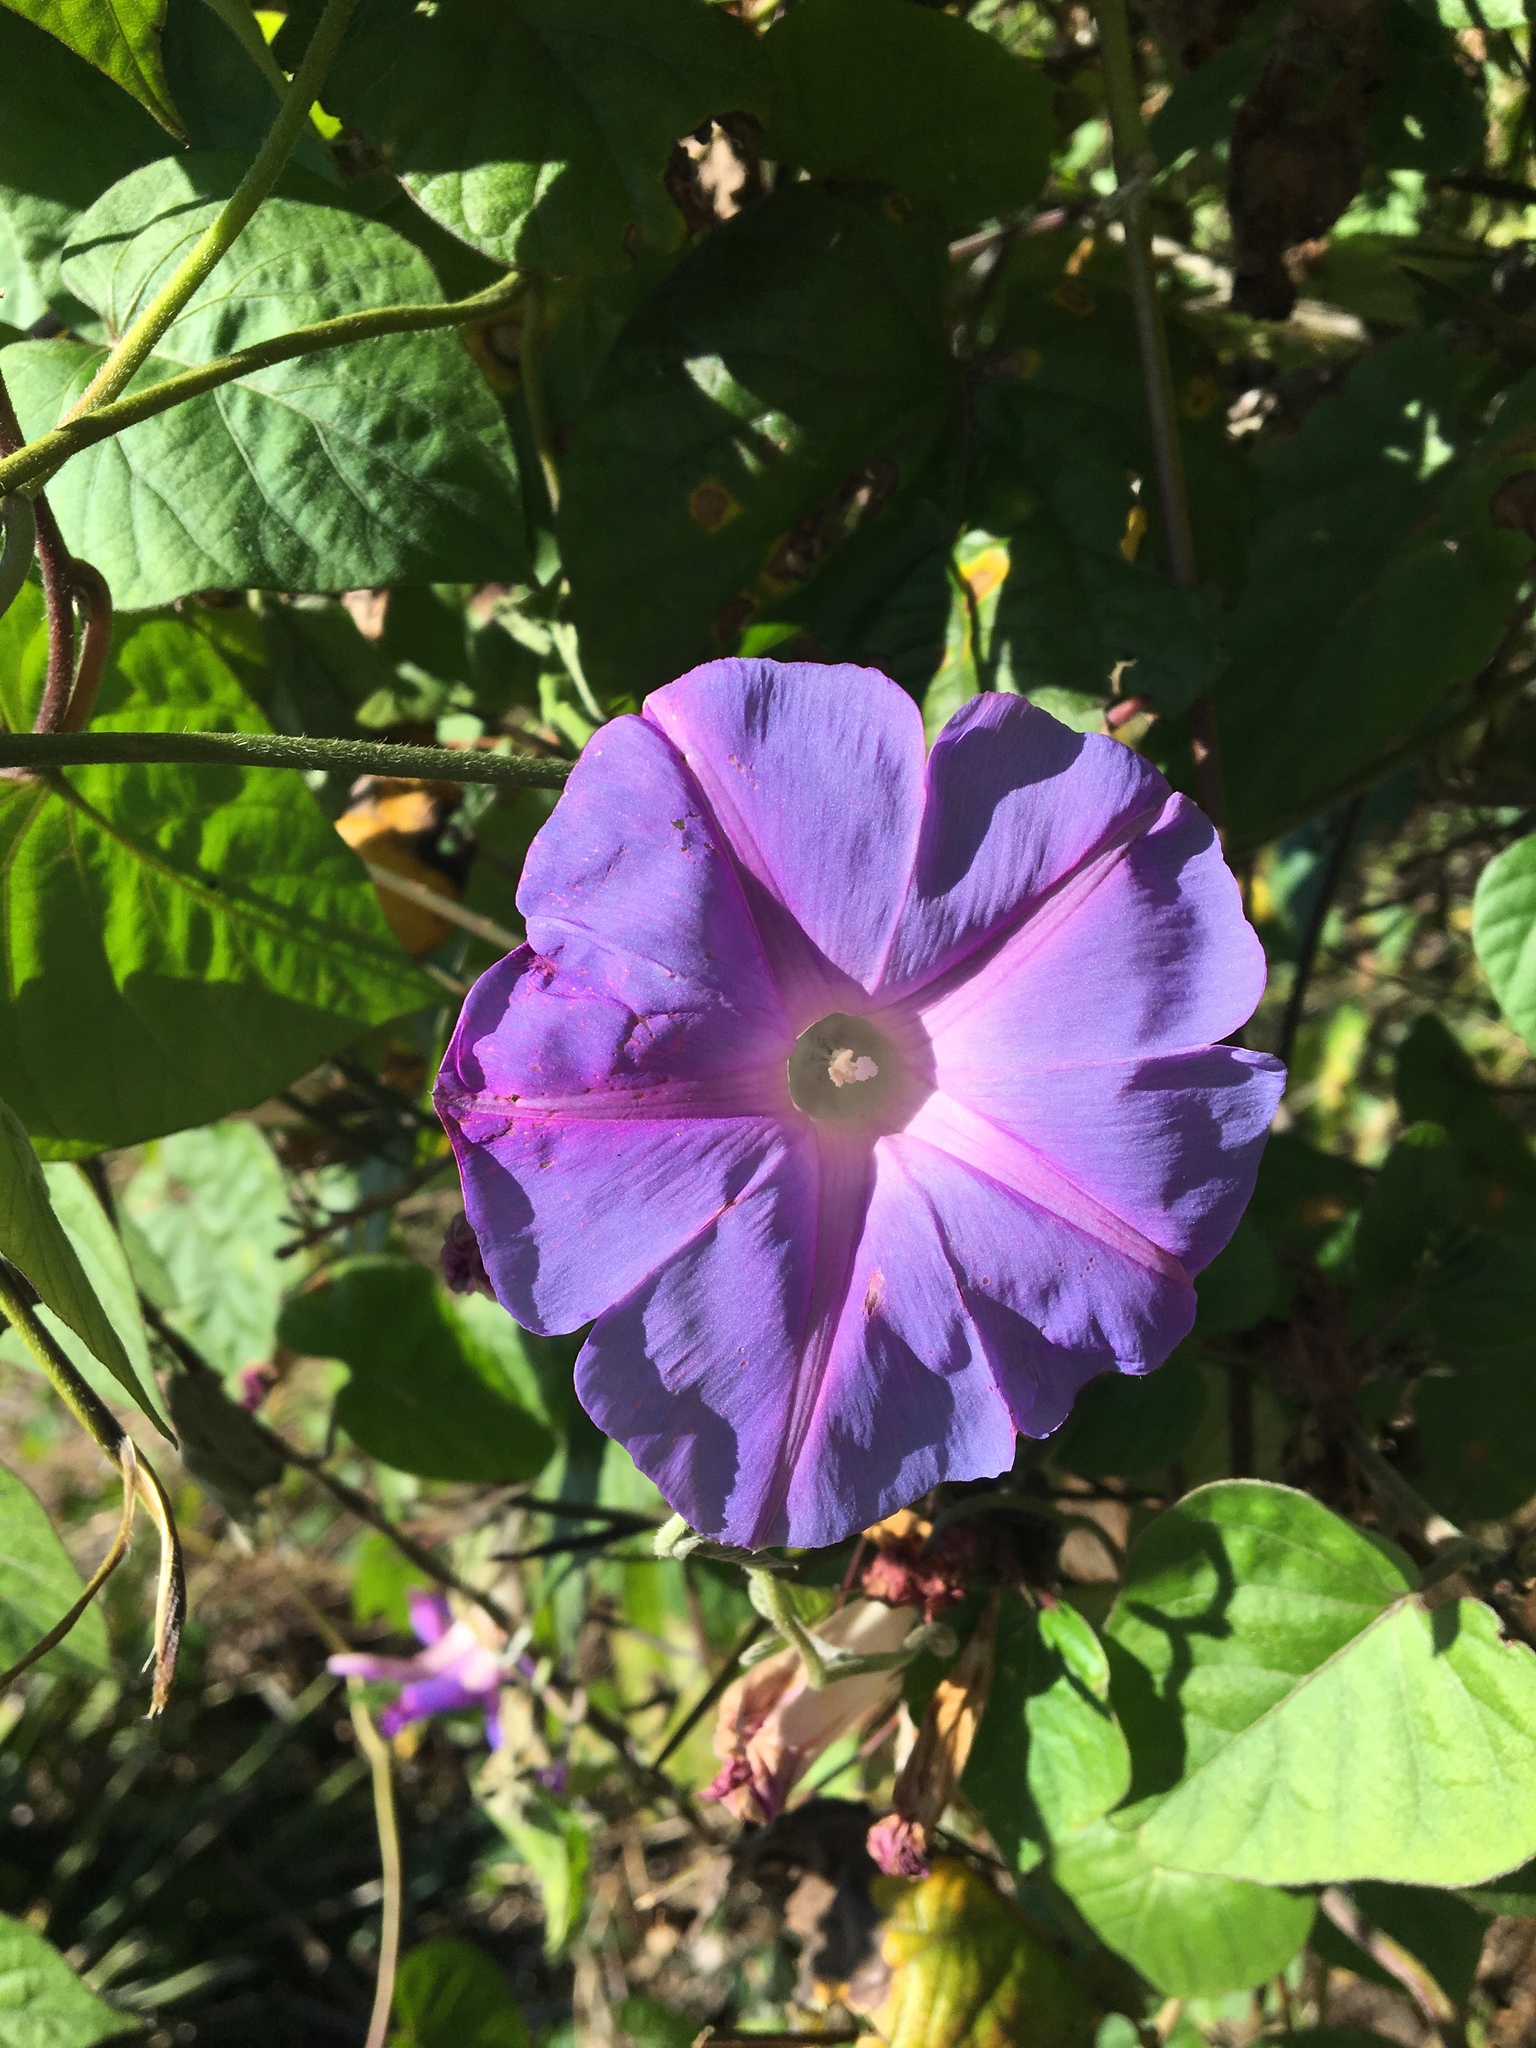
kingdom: Plantae
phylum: Tracheophyta
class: Magnoliopsida
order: Solanales
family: Convolvulaceae
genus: Ipomoea
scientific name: Ipomoea indica
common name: Blue dawnflower
